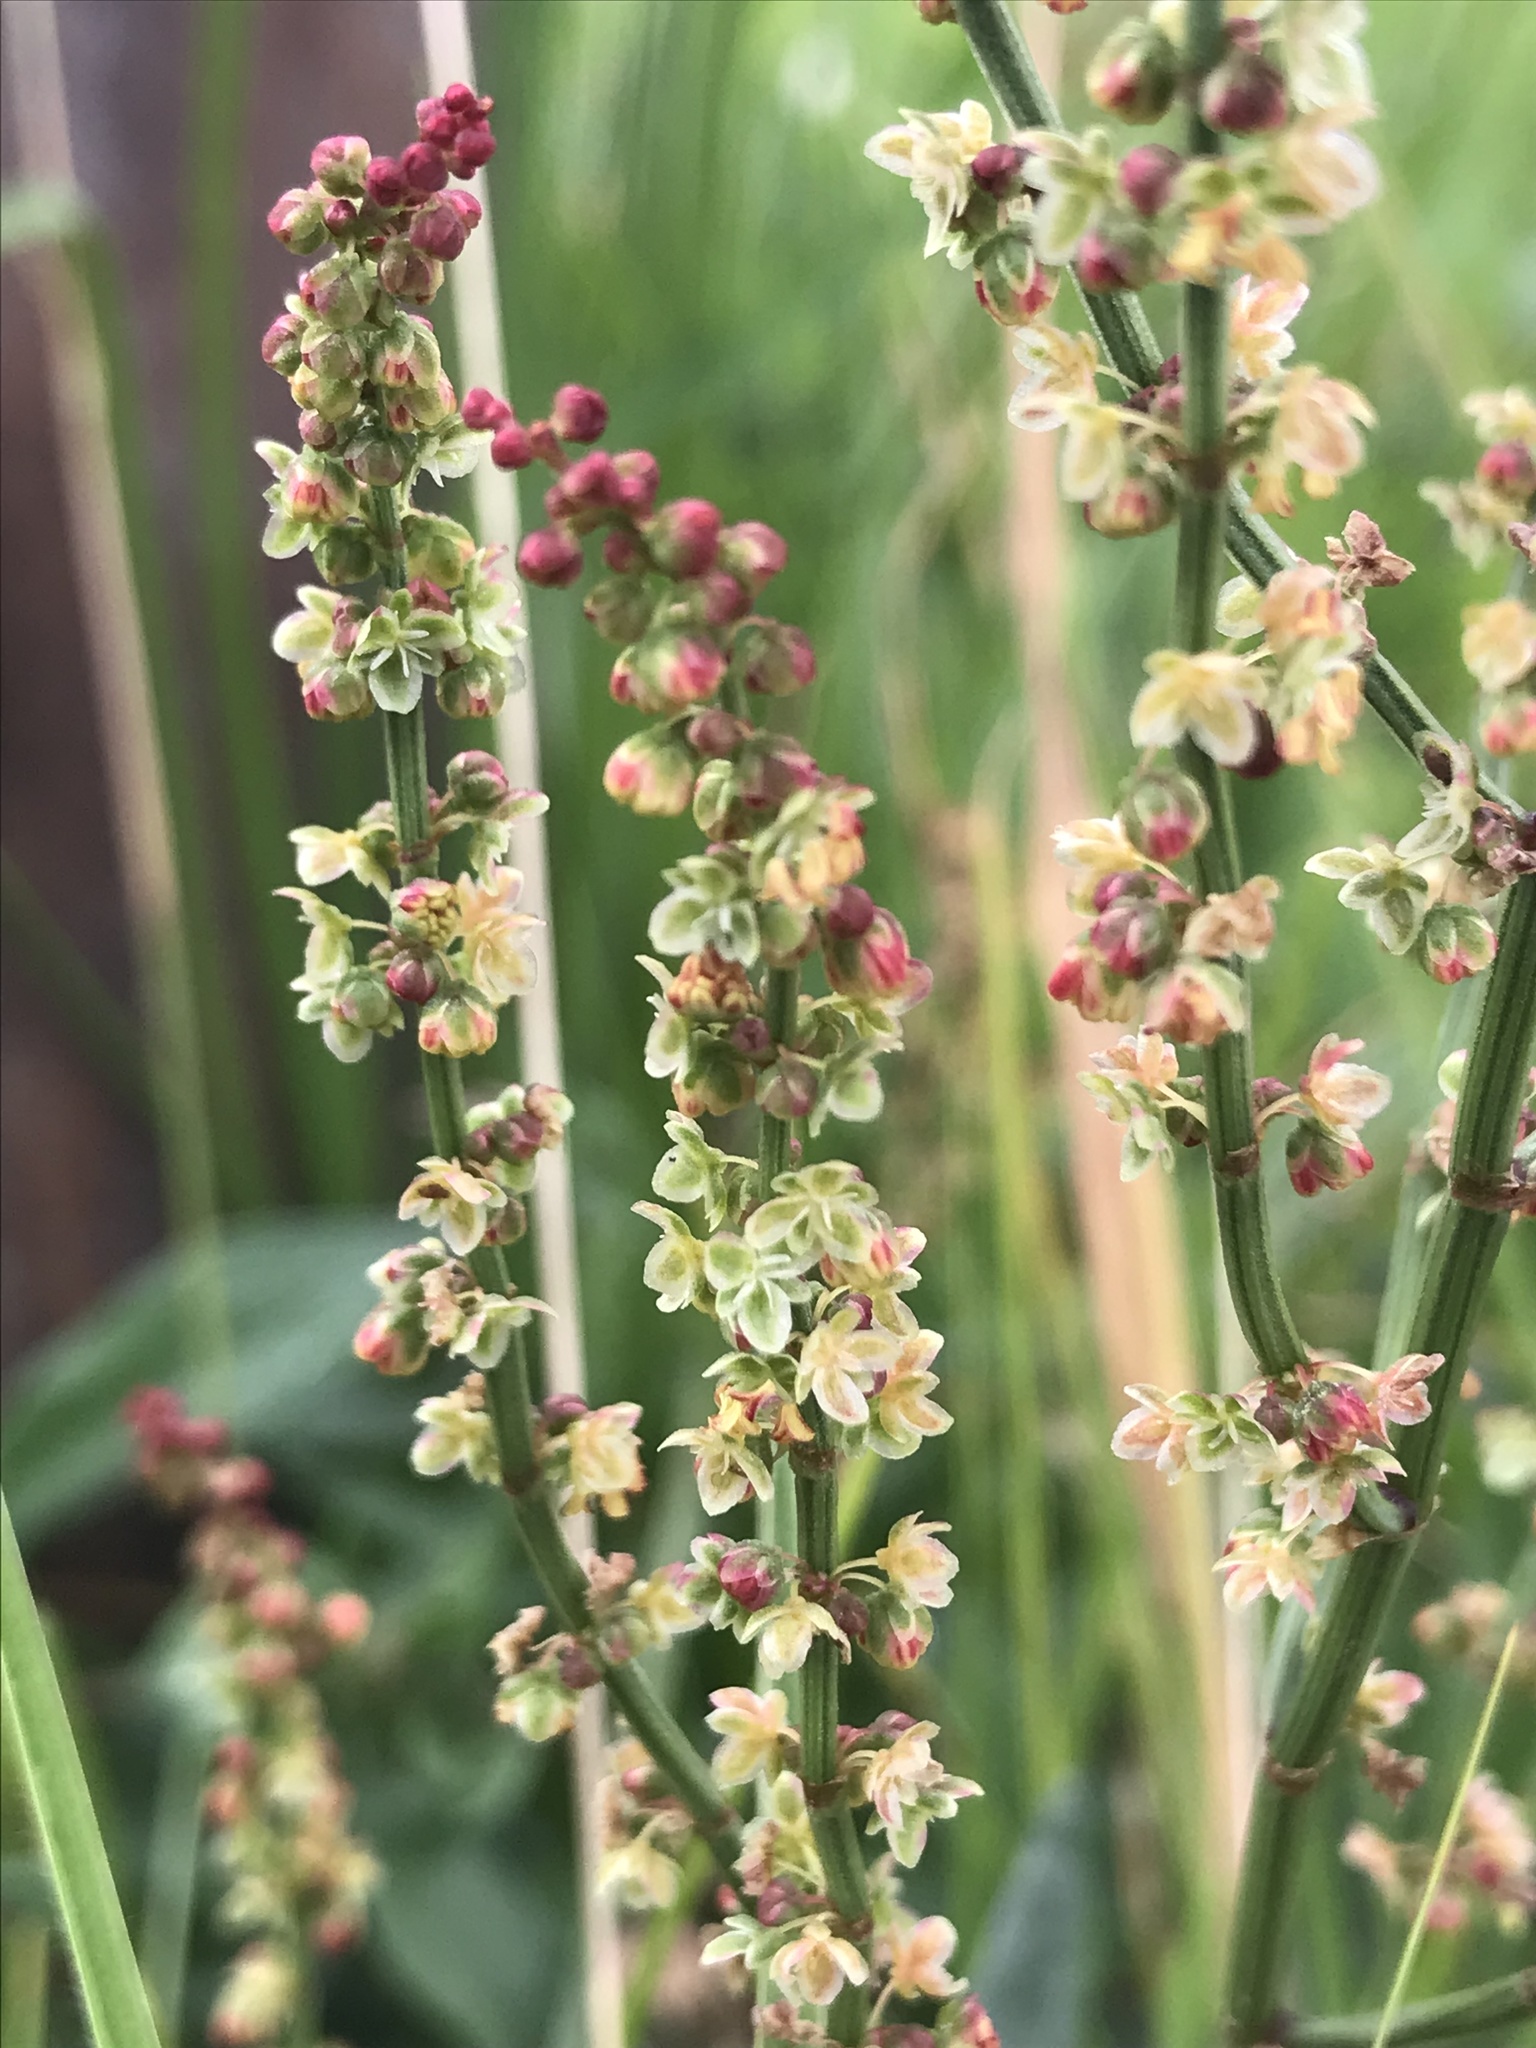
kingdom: Plantae
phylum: Tracheophyta
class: Magnoliopsida
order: Caryophyllales
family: Polygonaceae
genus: Rumex
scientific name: Rumex acetosella
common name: Common sheep sorrel
